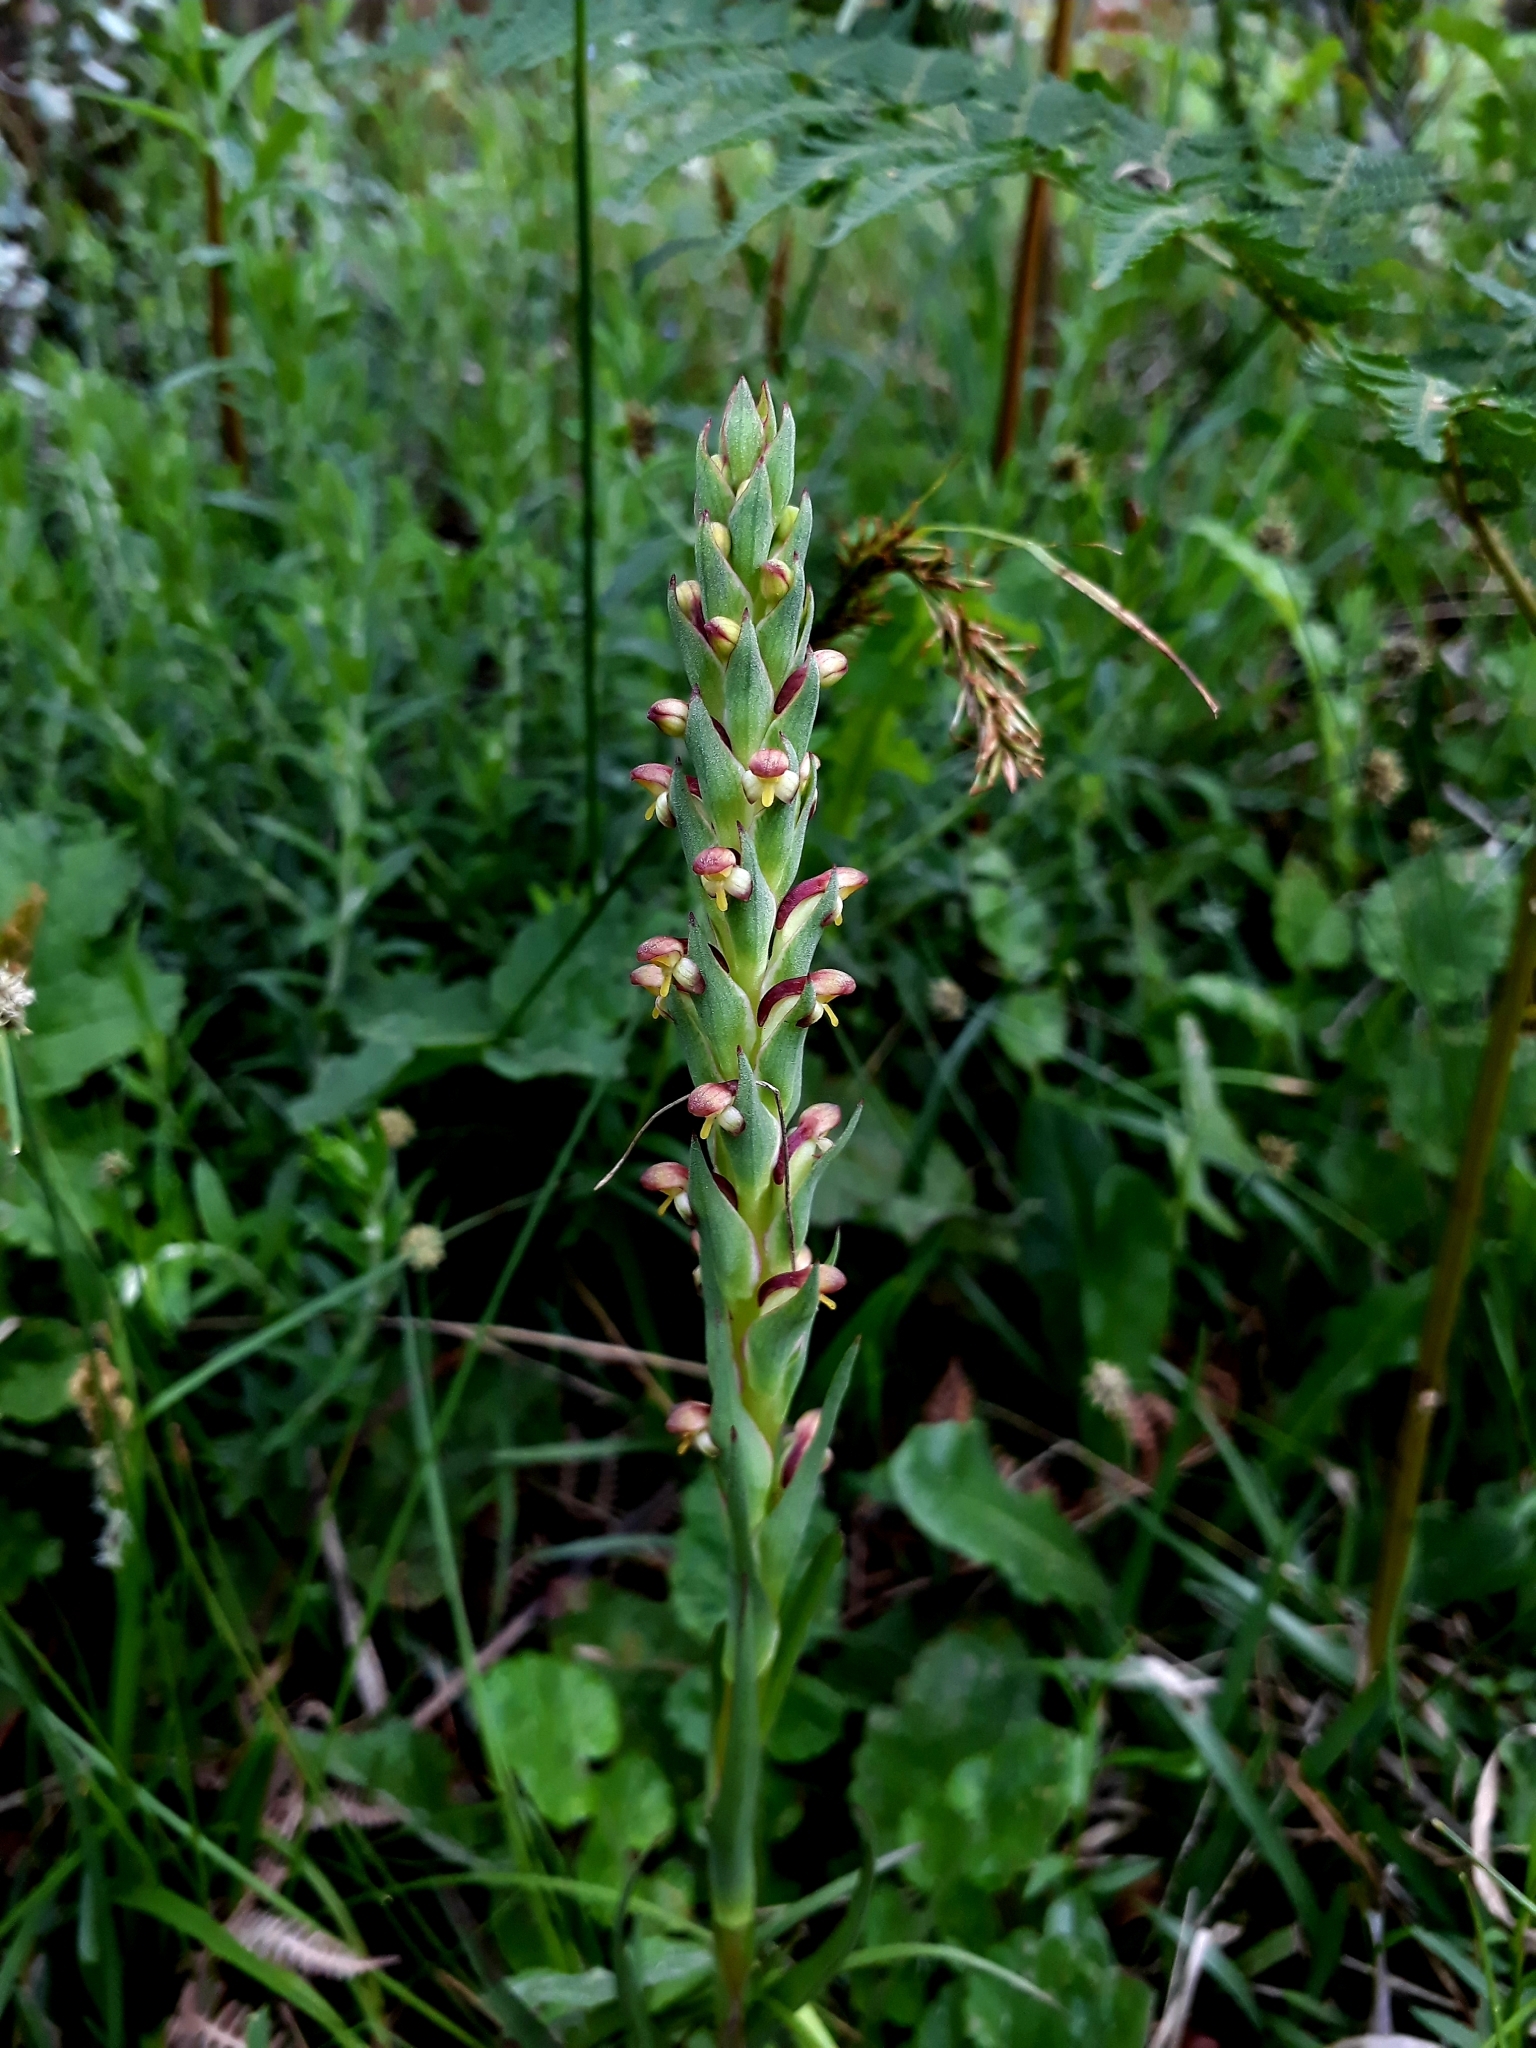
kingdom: Plantae
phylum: Tracheophyta
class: Liliopsida
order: Asparagales
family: Orchidaceae
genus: Disa
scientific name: Disa bracteata
